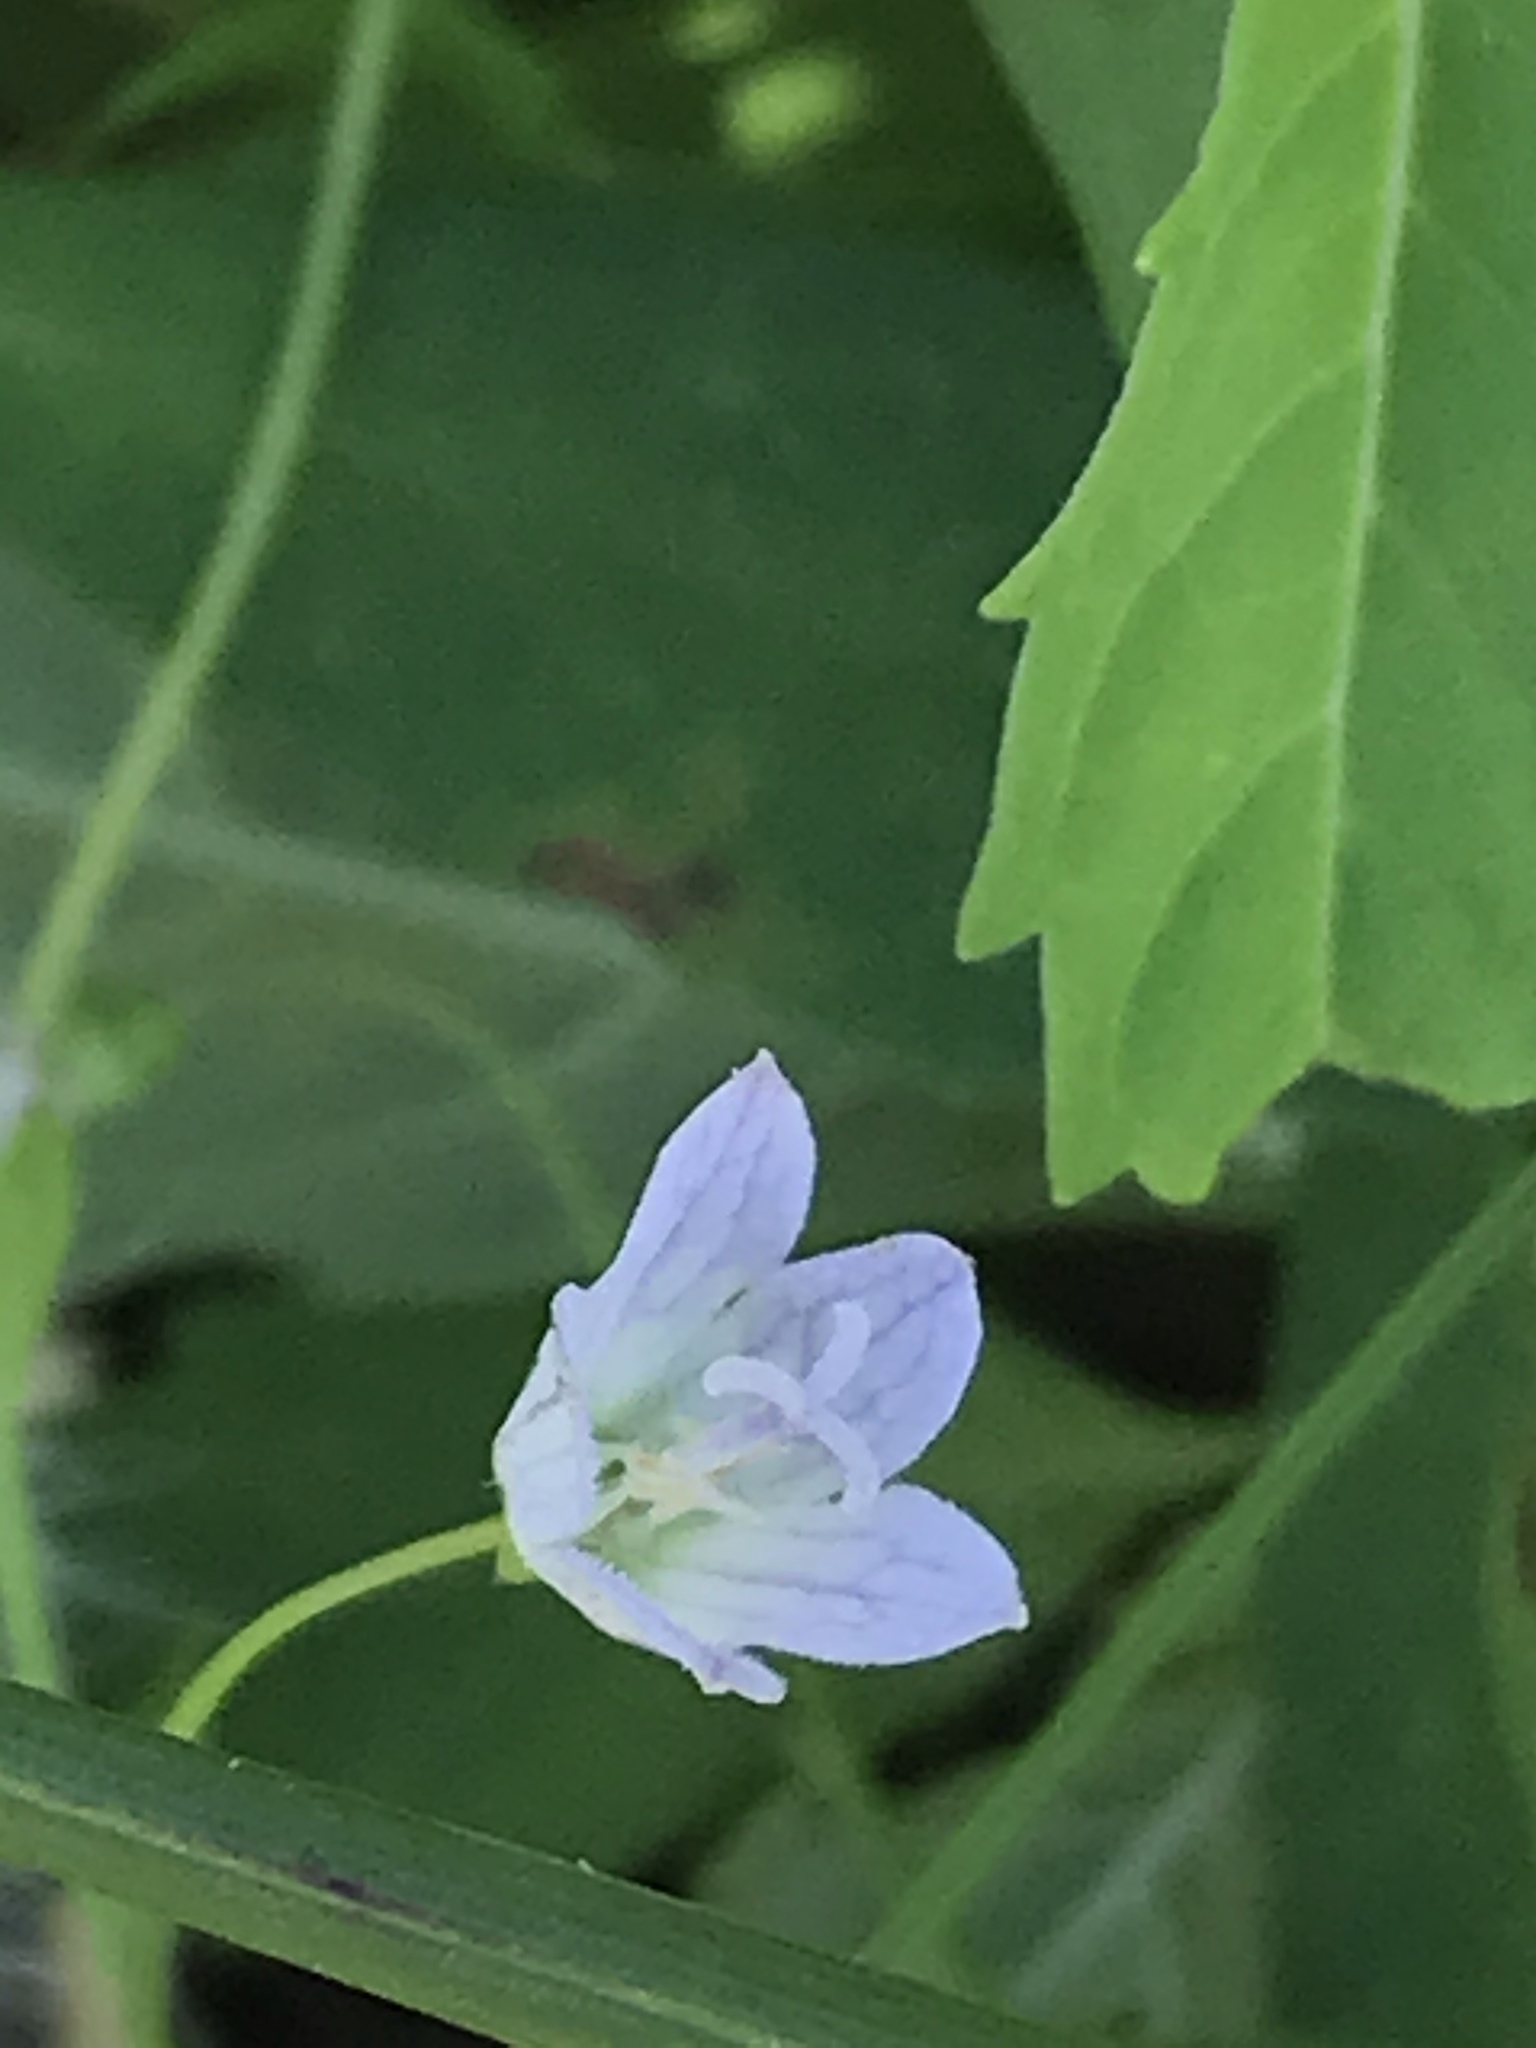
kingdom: Plantae
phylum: Tracheophyta
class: Magnoliopsida
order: Asterales
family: Campanulaceae
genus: Palustricodon
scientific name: Palustricodon aparinoides
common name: Bedstraw bellflower
